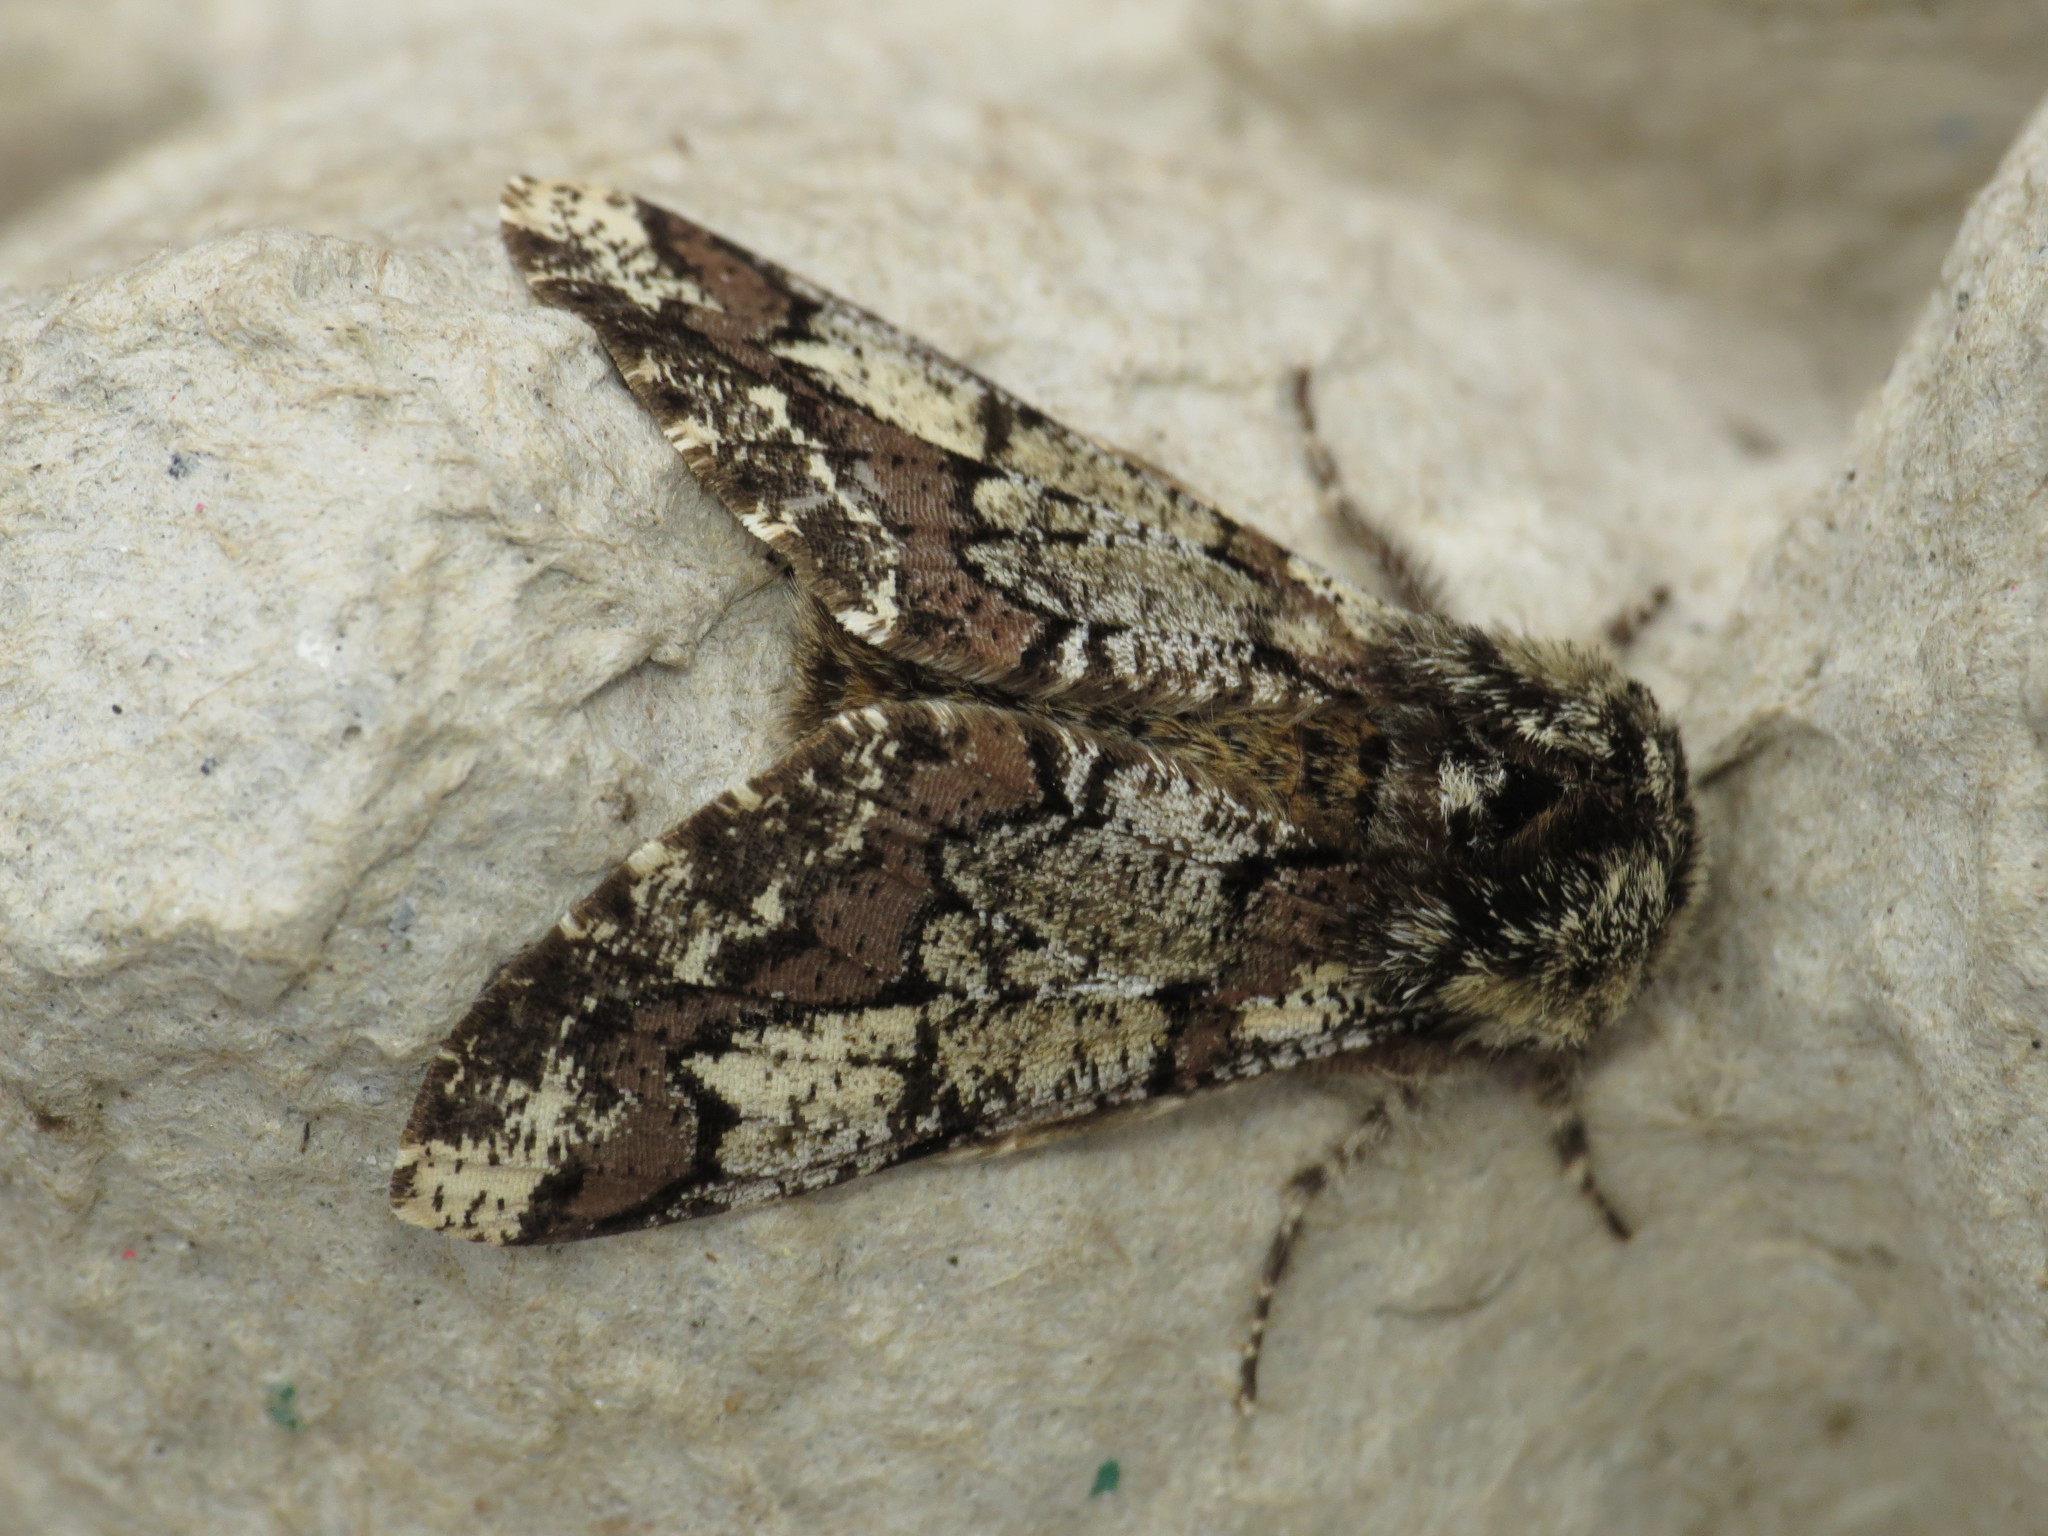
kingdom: Animalia
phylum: Arthropoda
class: Insecta
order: Lepidoptera
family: Geometridae
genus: Biston
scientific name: Biston strataria
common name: Oak beauty
